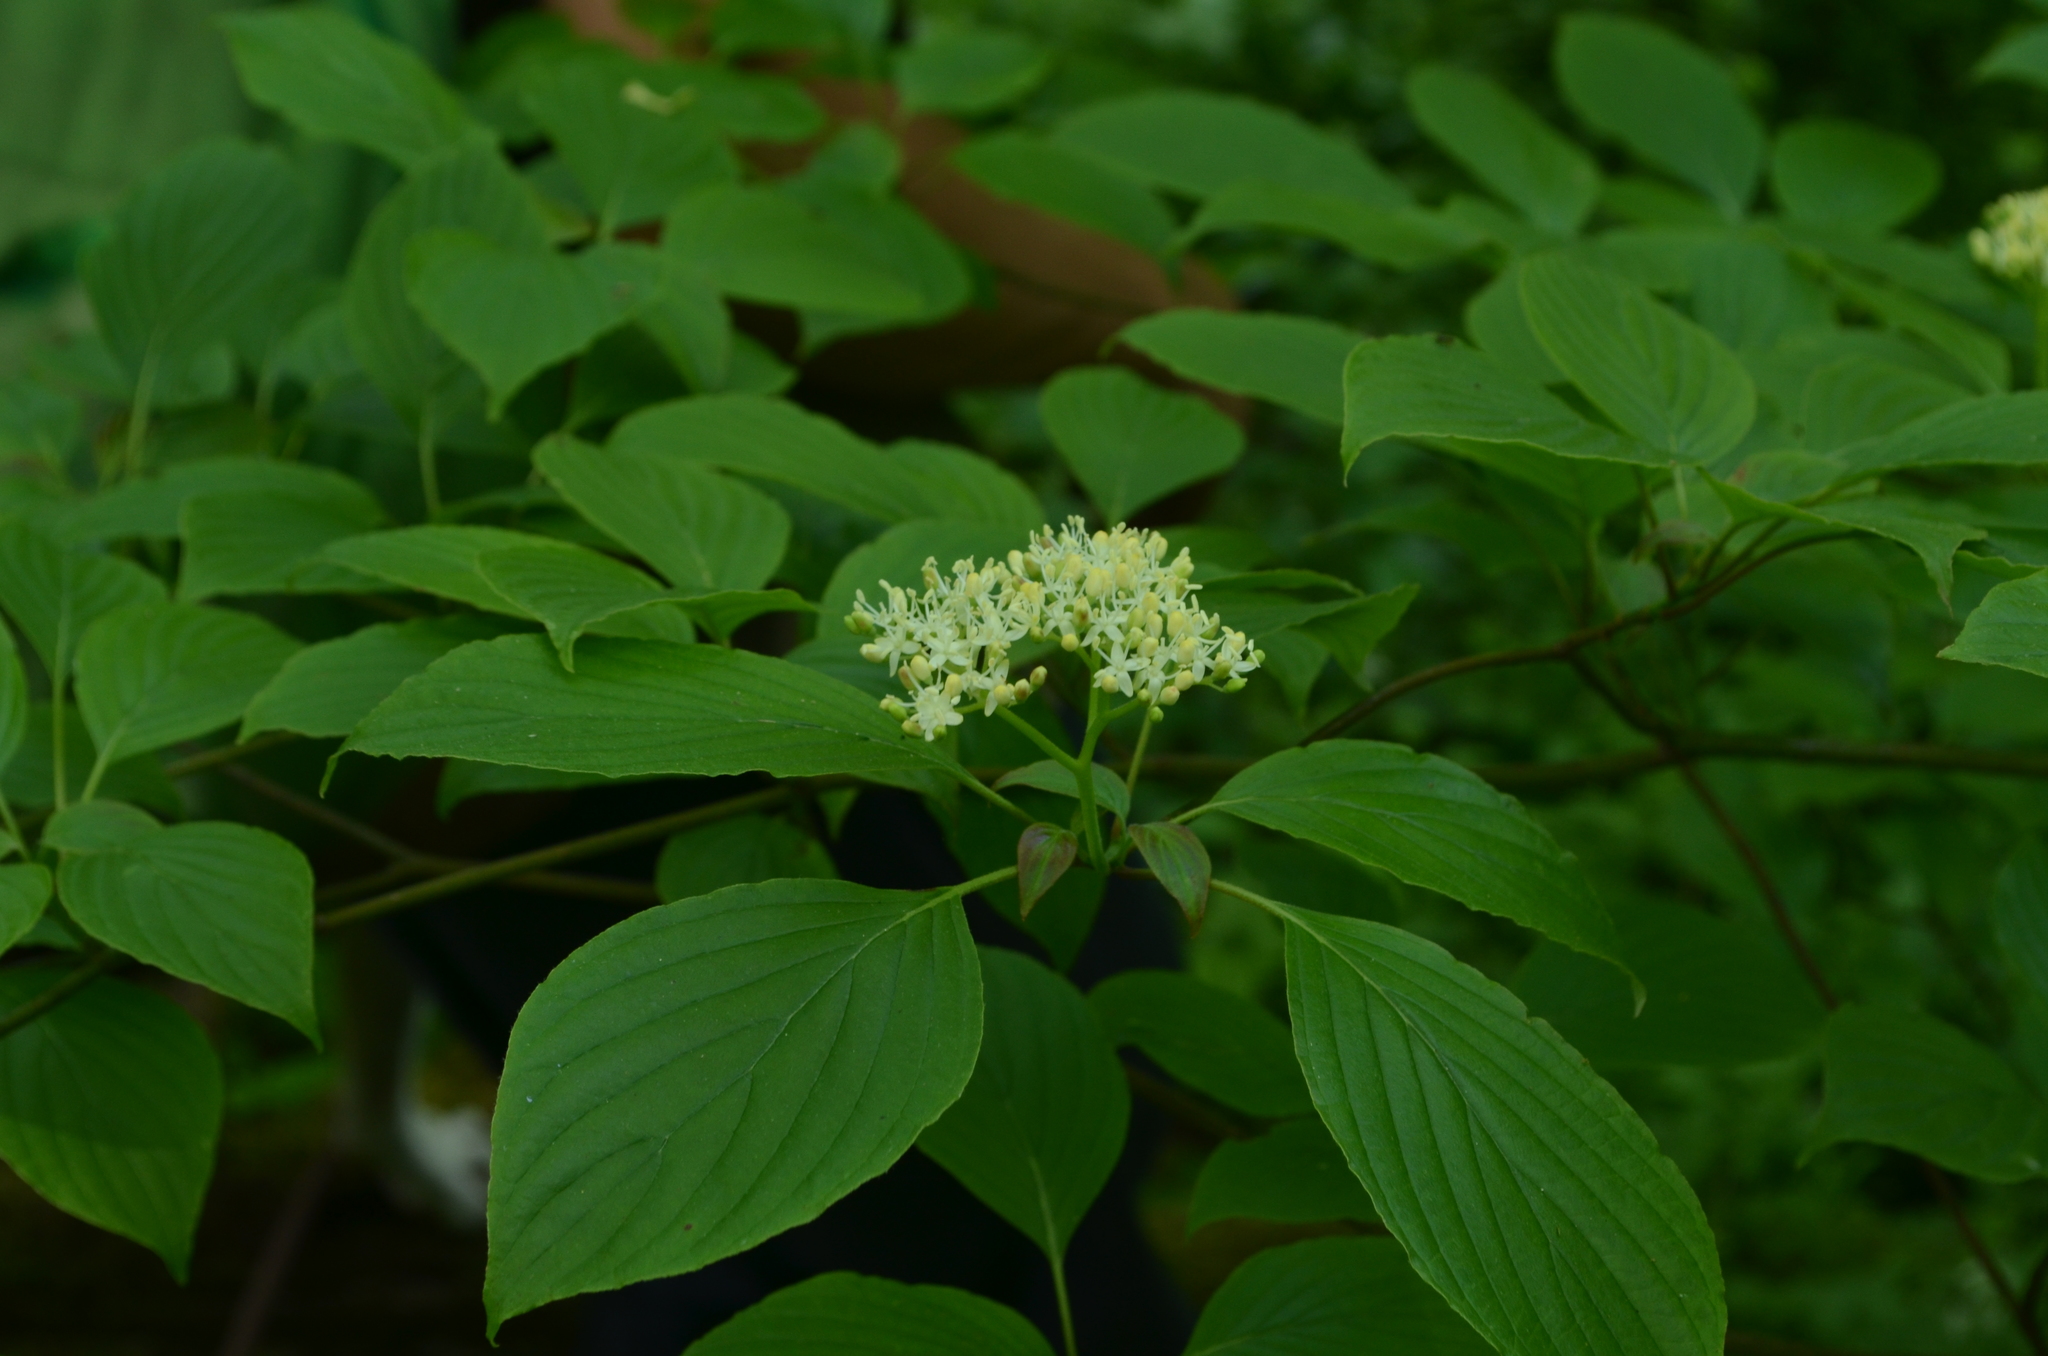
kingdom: Plantae
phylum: Tracheophyta
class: Magnoliopsida
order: Cornales
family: Cornaceae
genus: Cornus
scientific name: Cornus alternifolia
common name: Pagoda dogwood
